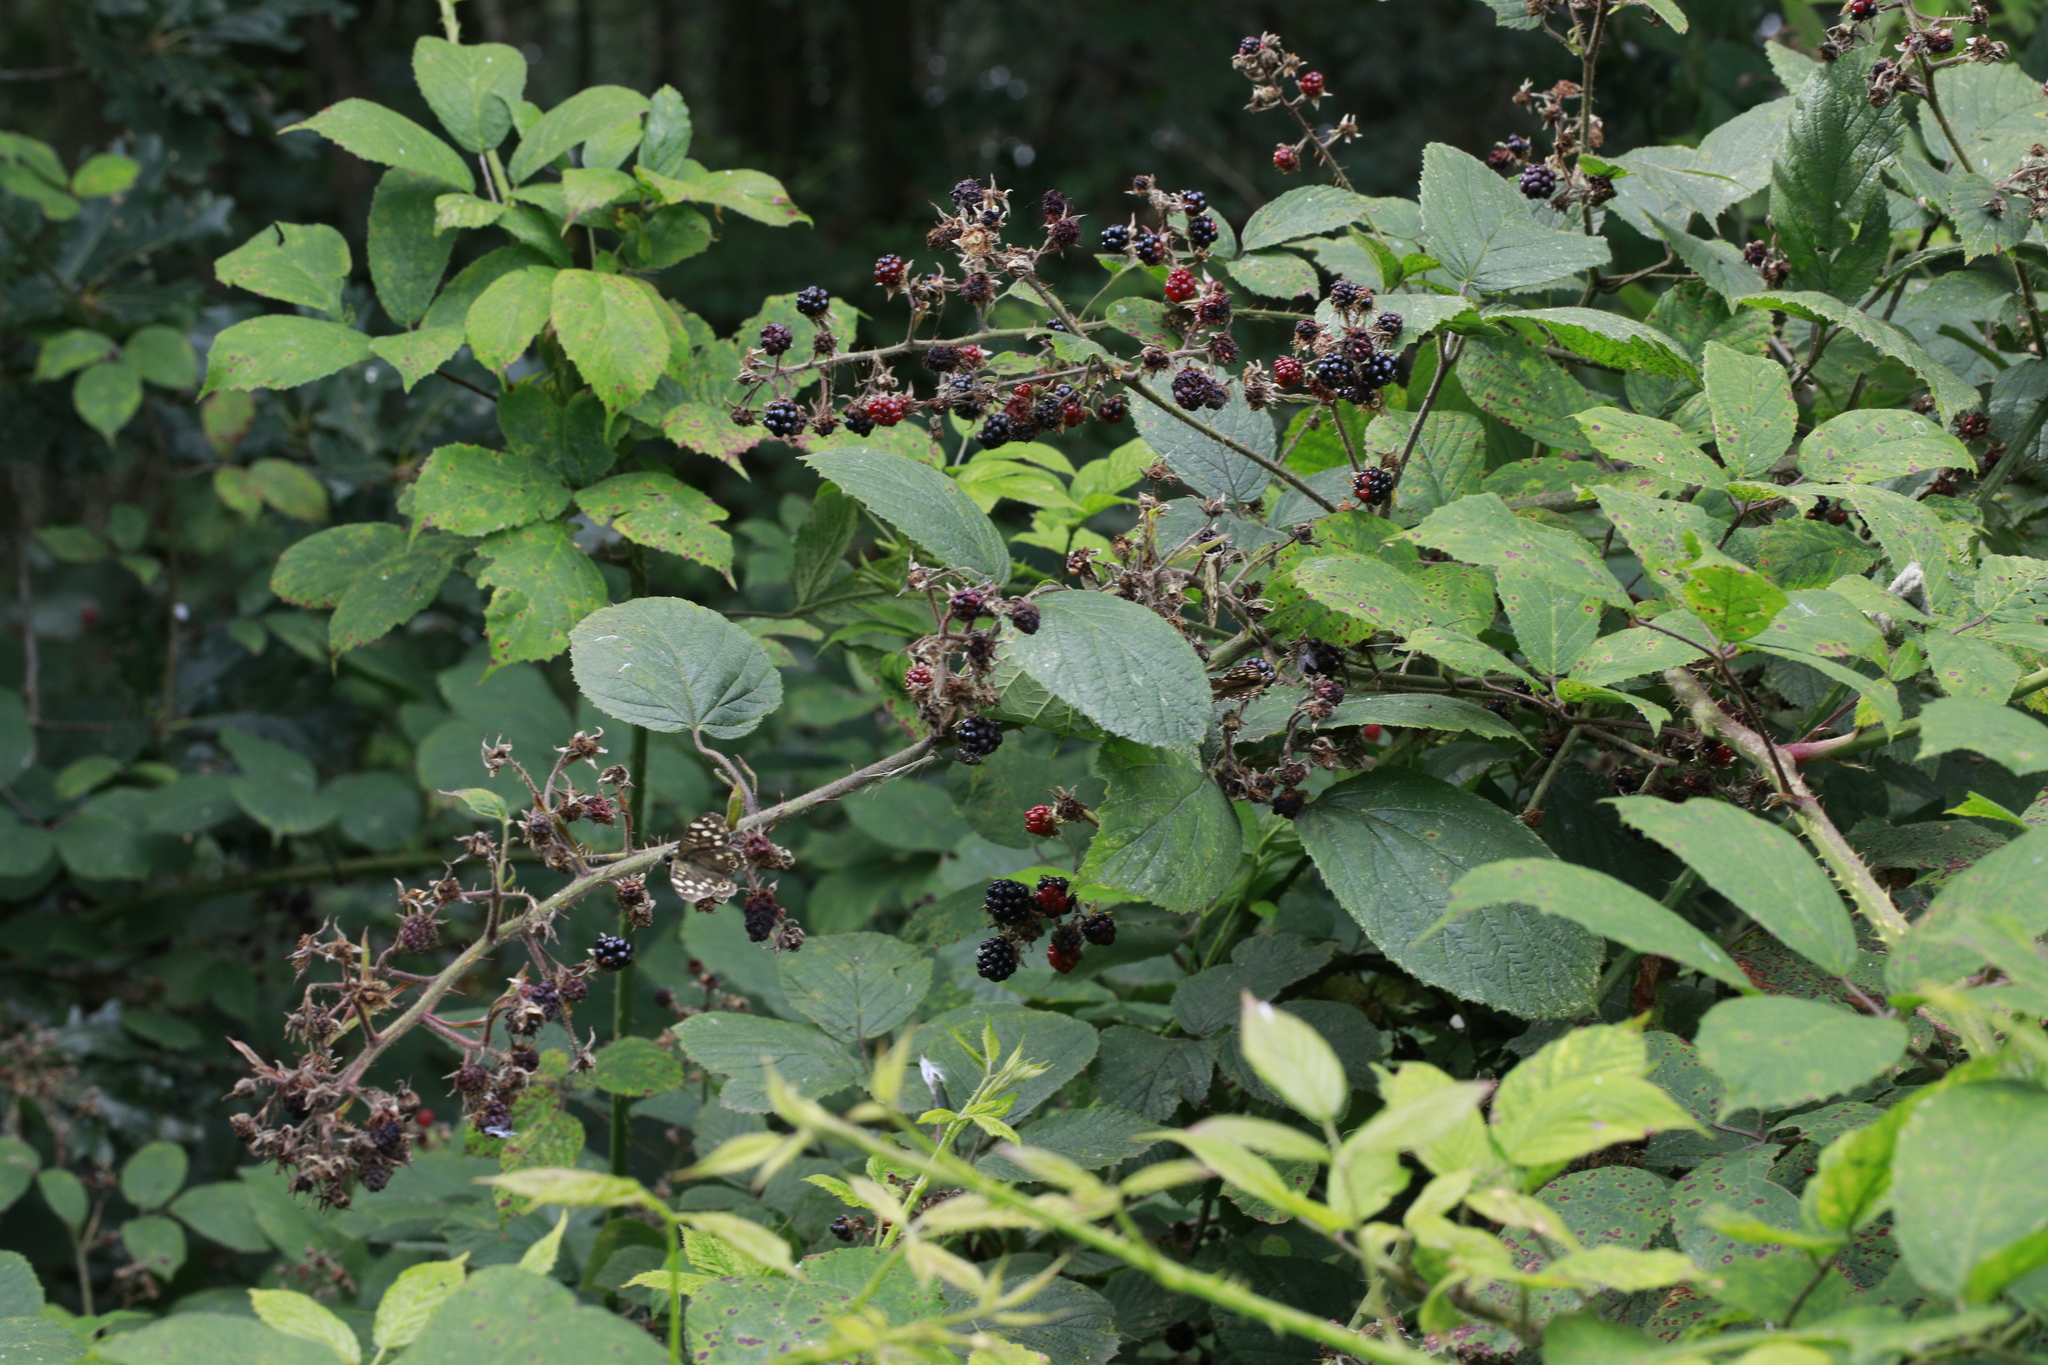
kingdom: Plantae
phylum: Tracheophyta
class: Magnoliopsida
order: Rosales
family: Rosaceae
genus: Rubus
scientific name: Rubus rufescens
